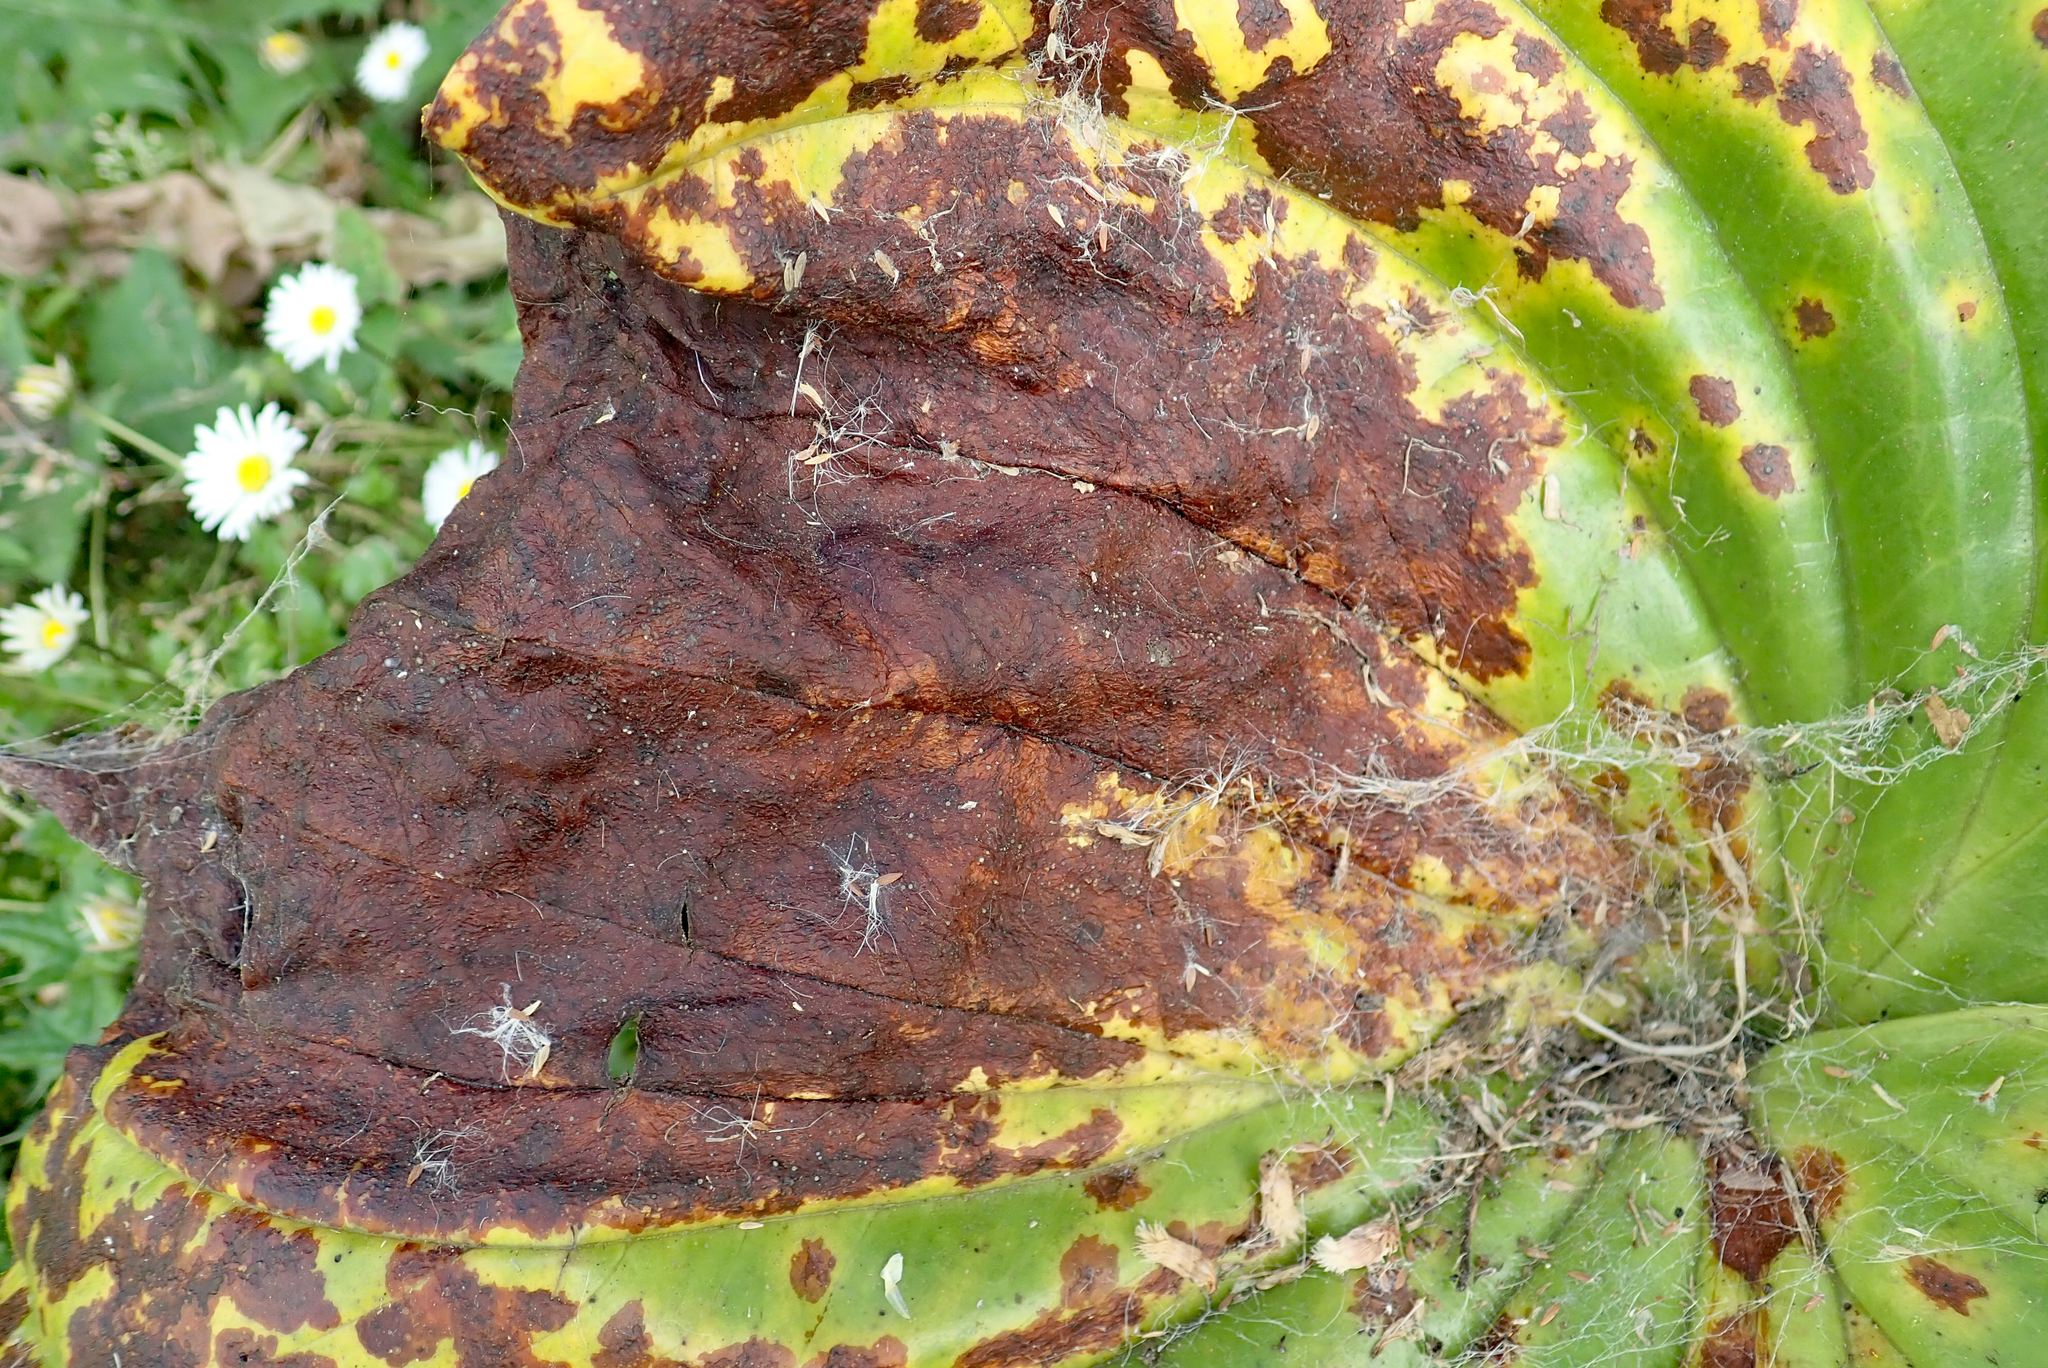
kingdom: Fungi
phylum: Basidiomycota
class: Pucciniomycetes
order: Pucciniales
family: Pucciniastraceae
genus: Pucciniastrum
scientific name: Pucciniastrum myosotidii
